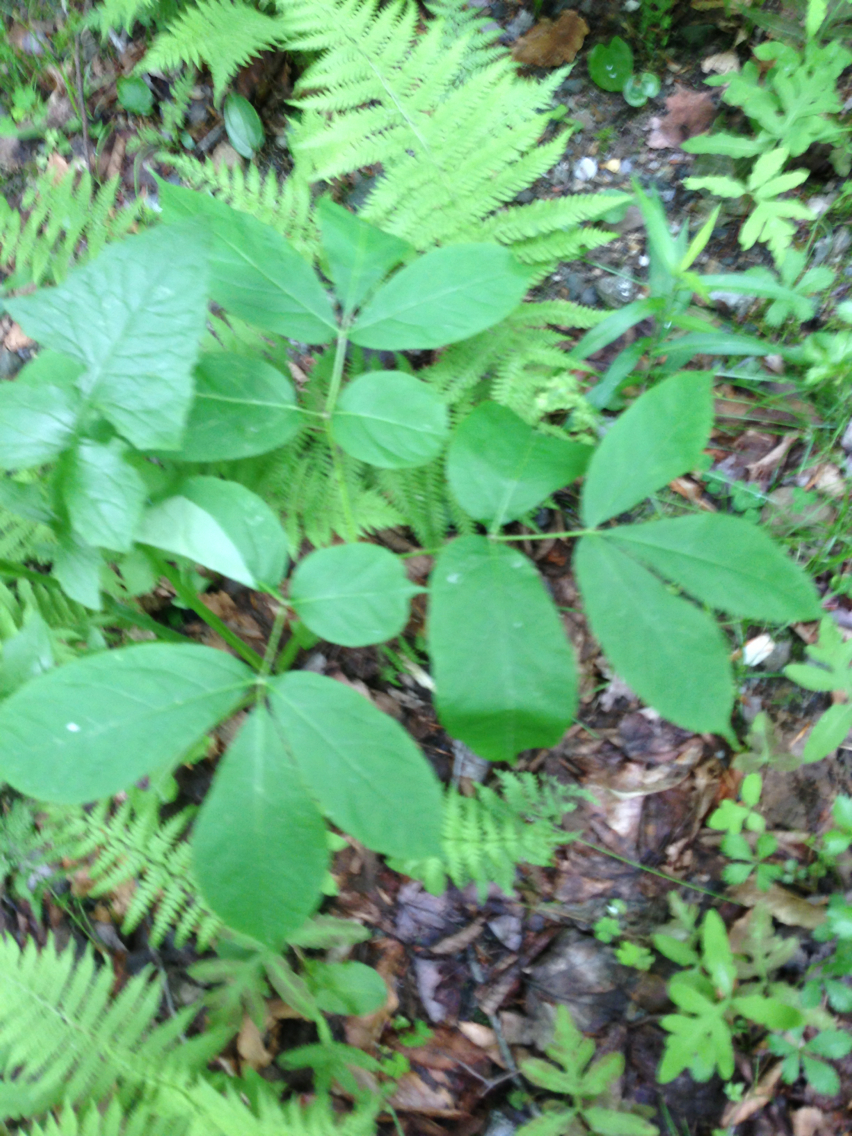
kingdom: Plantae
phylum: Tracheophyta
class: Magnoliopsida
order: Apiales
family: Araliaceae
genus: Aralia
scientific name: Aralia nudicaulis
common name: Wild sarsaparilla
